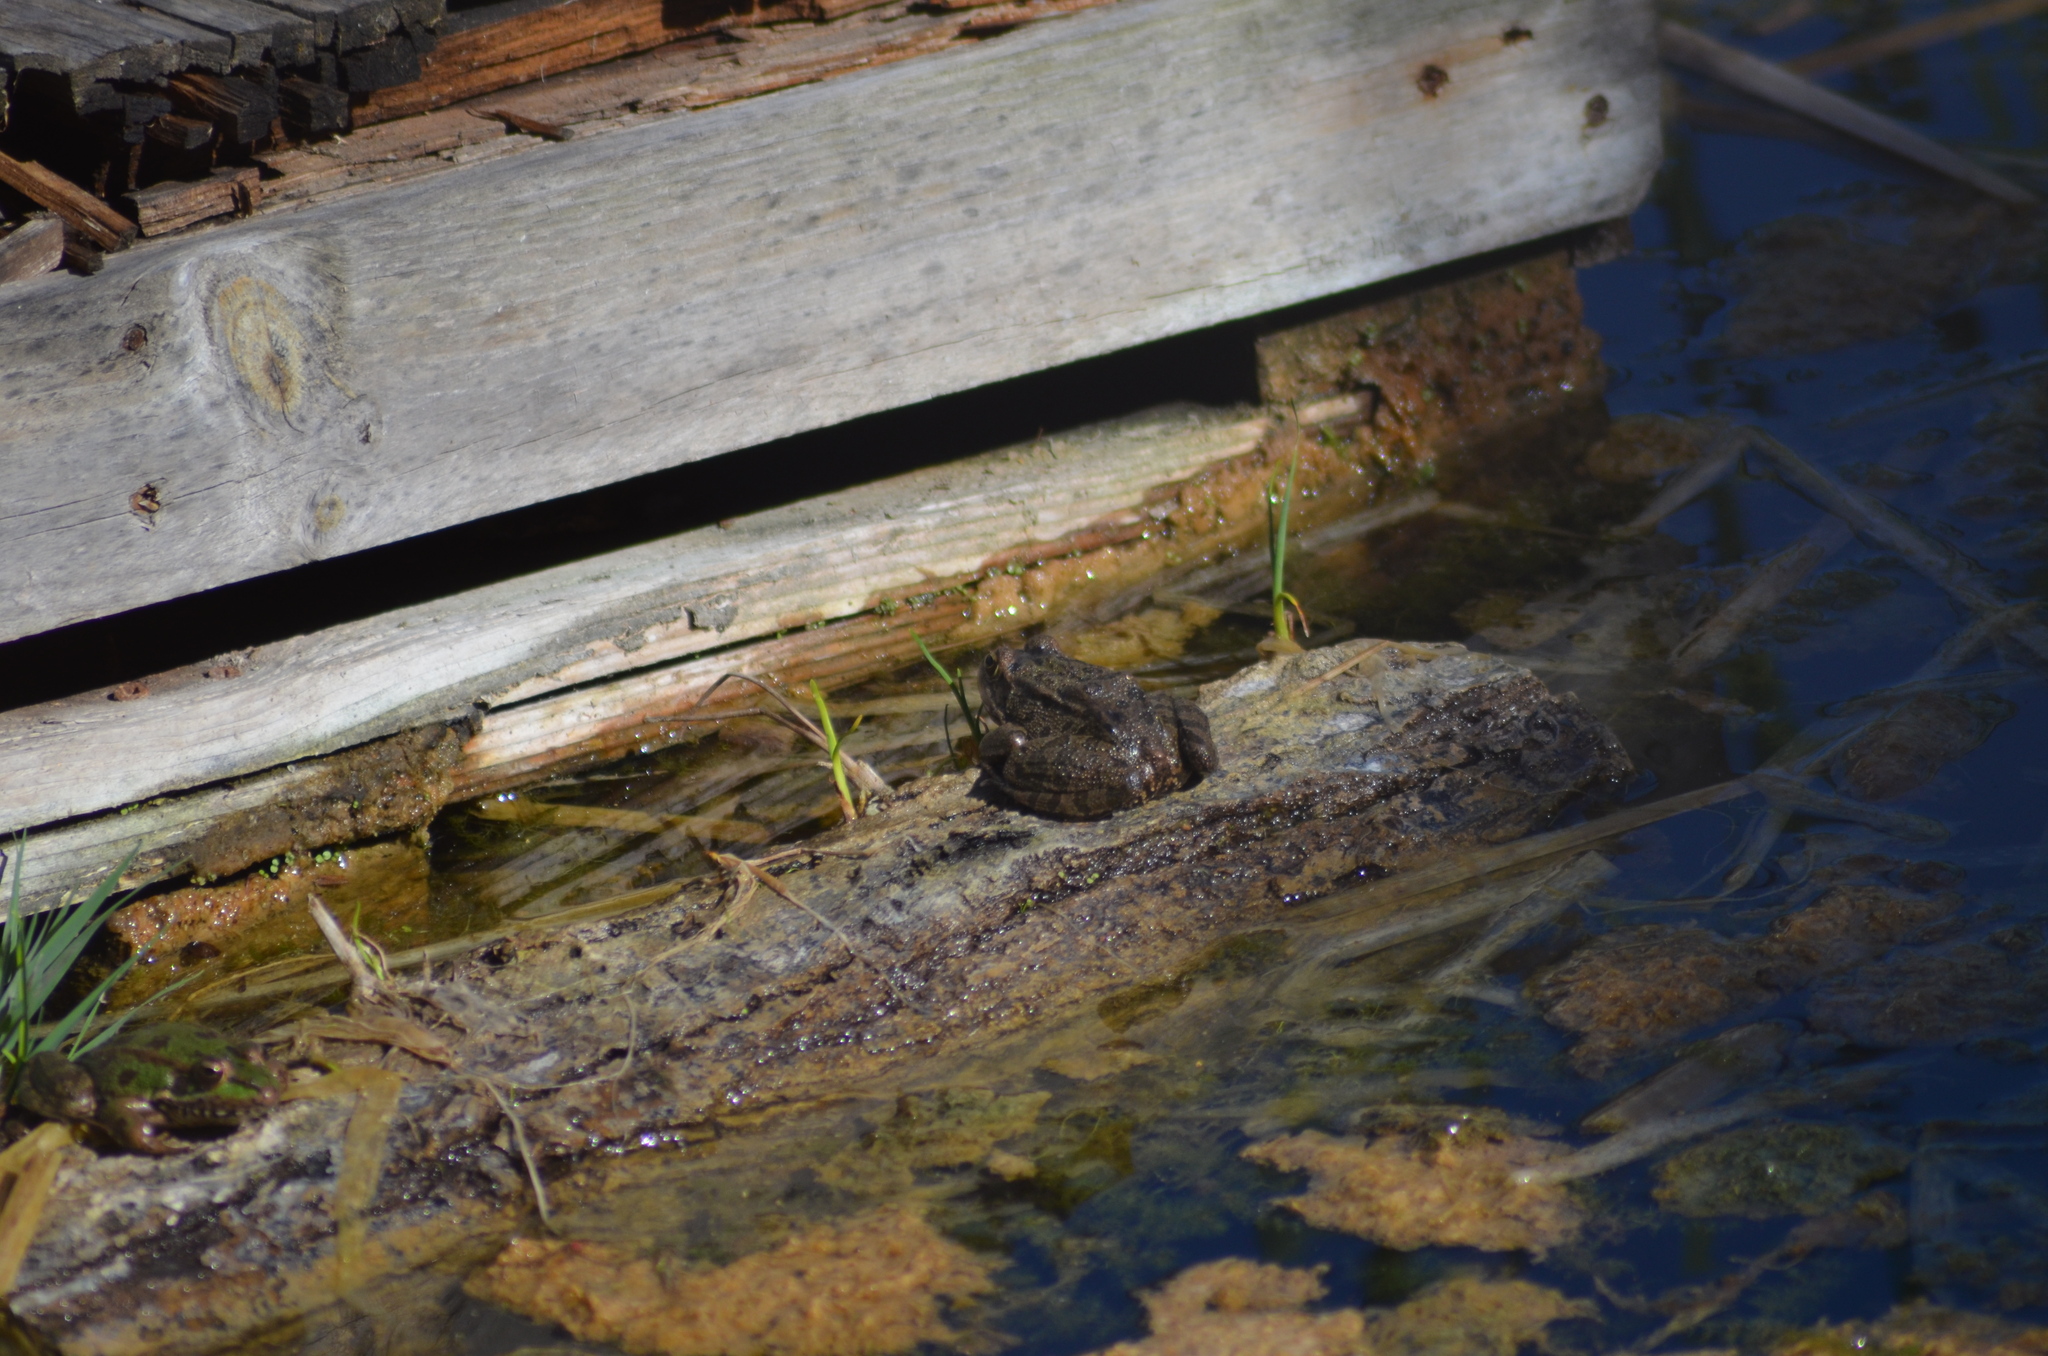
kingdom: Animalia
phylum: Chordata
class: Amphibia
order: Anura
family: Ranidae
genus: Pelophylax
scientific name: Pelophylax perezi
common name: Perez's frog
